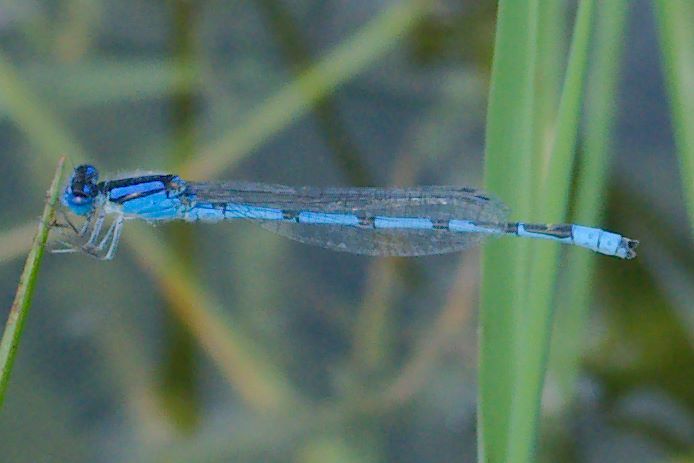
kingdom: Animalia
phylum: Arthropoda
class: Insecta
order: Odonata
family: Coenagrionidae
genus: Enallagma
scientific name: Enallagma civile
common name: Damselfly
